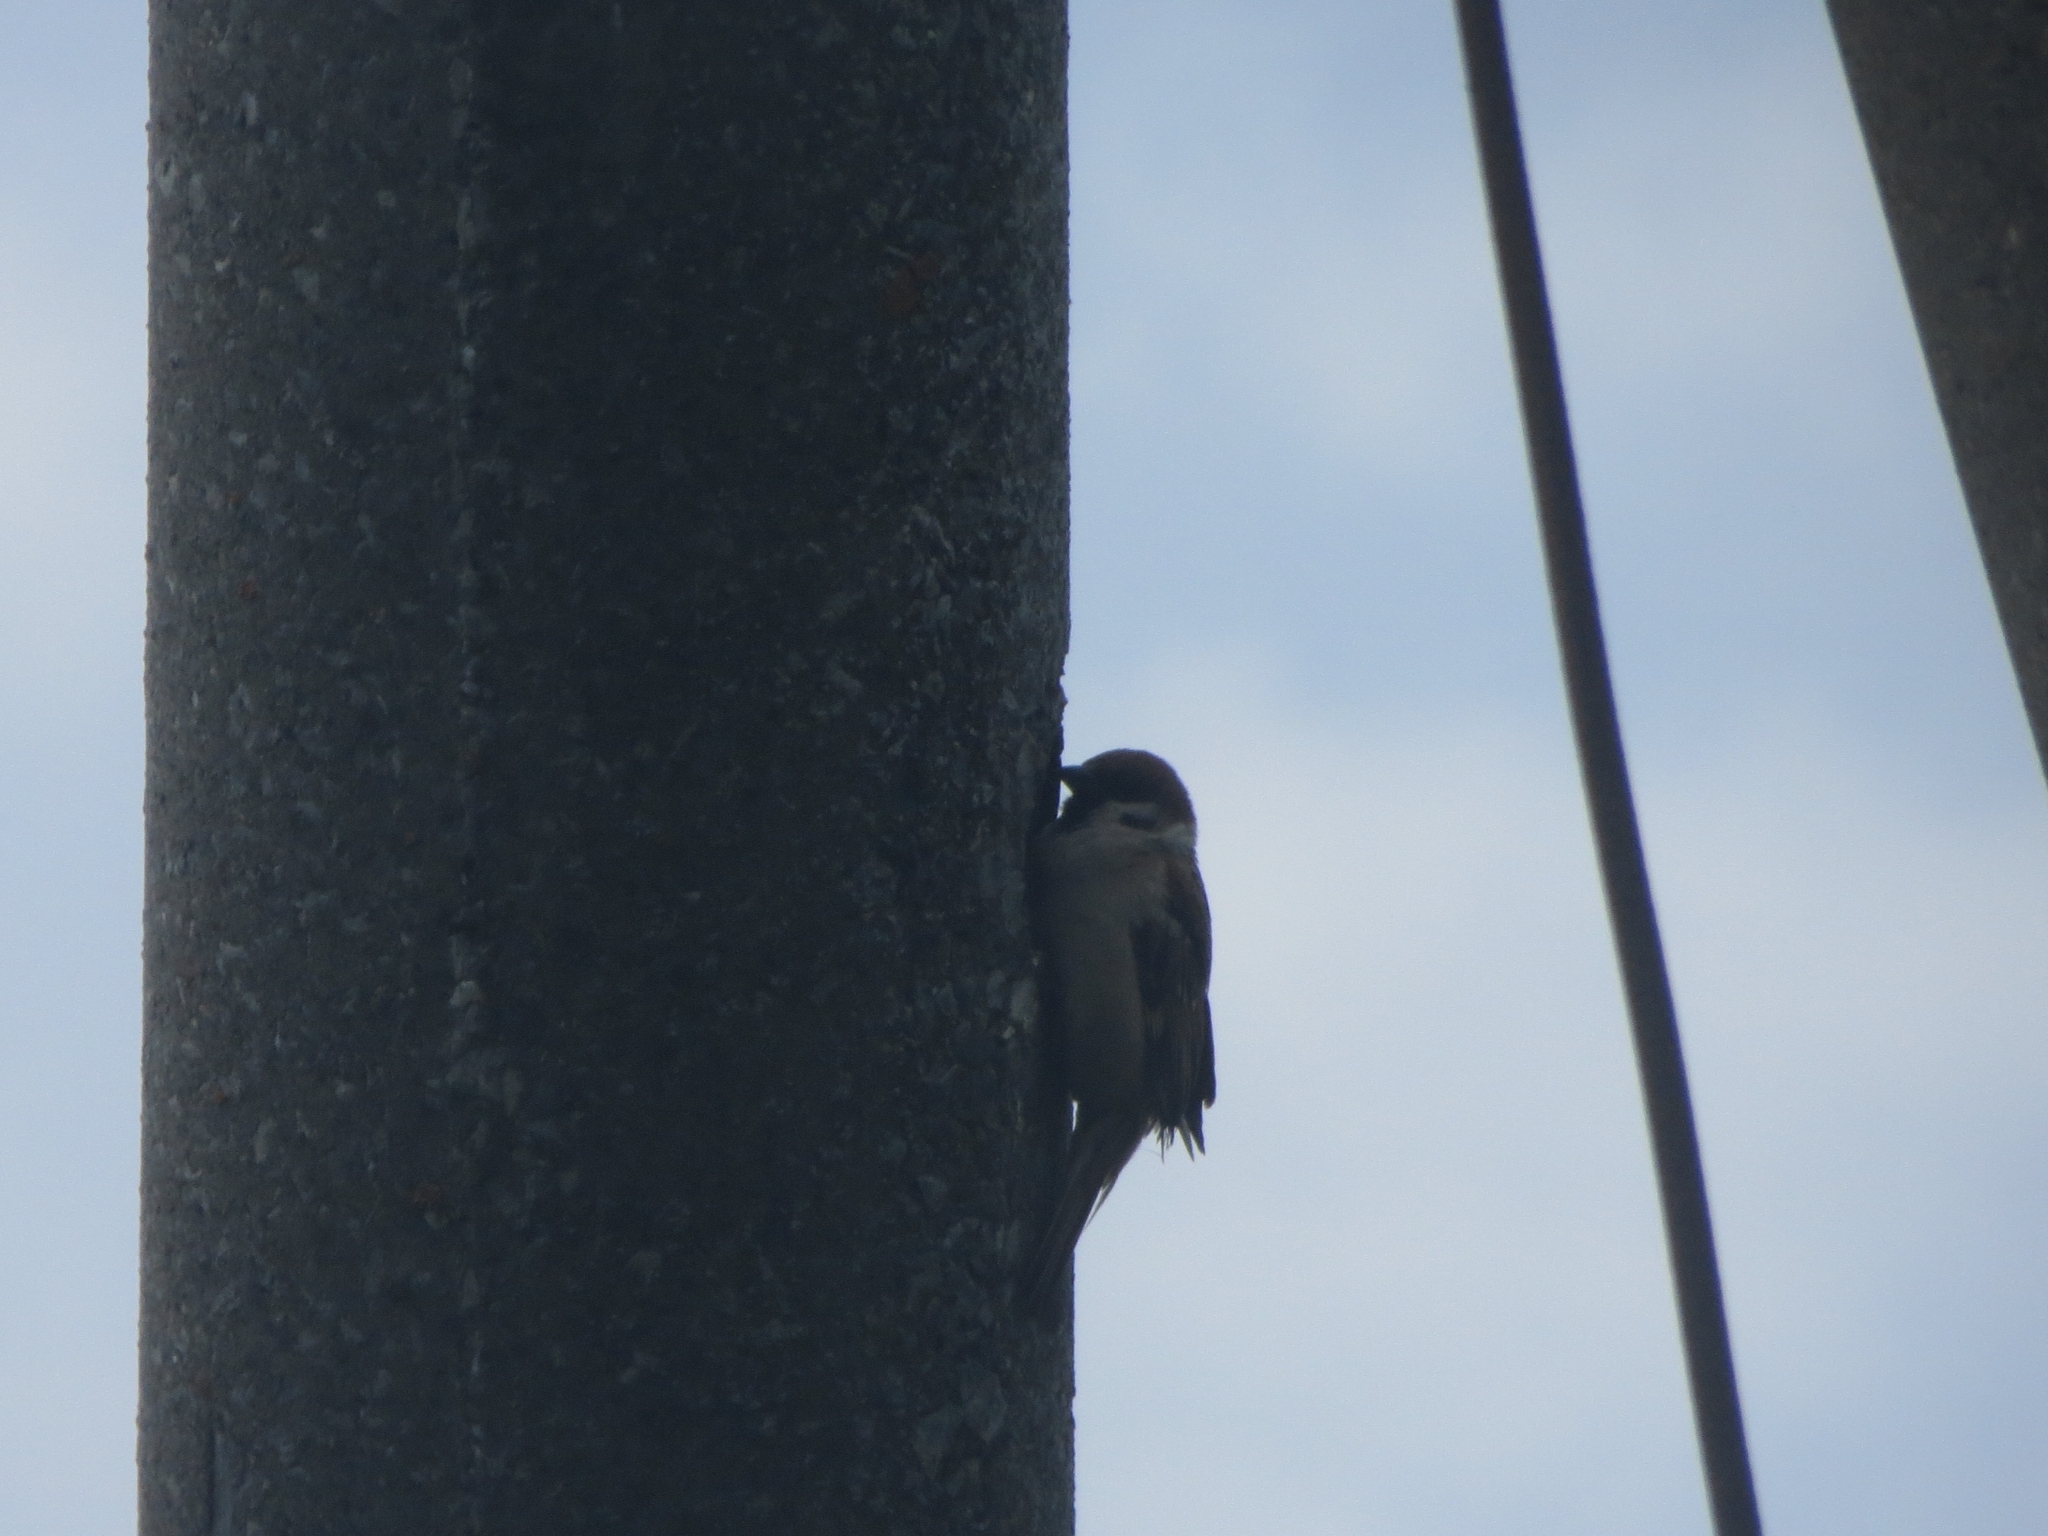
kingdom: Animalia
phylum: Chordata
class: Aves
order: Passeriformes
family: Passeridae
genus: Passer
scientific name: Passer montanus
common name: Eurasian tree sparrow
